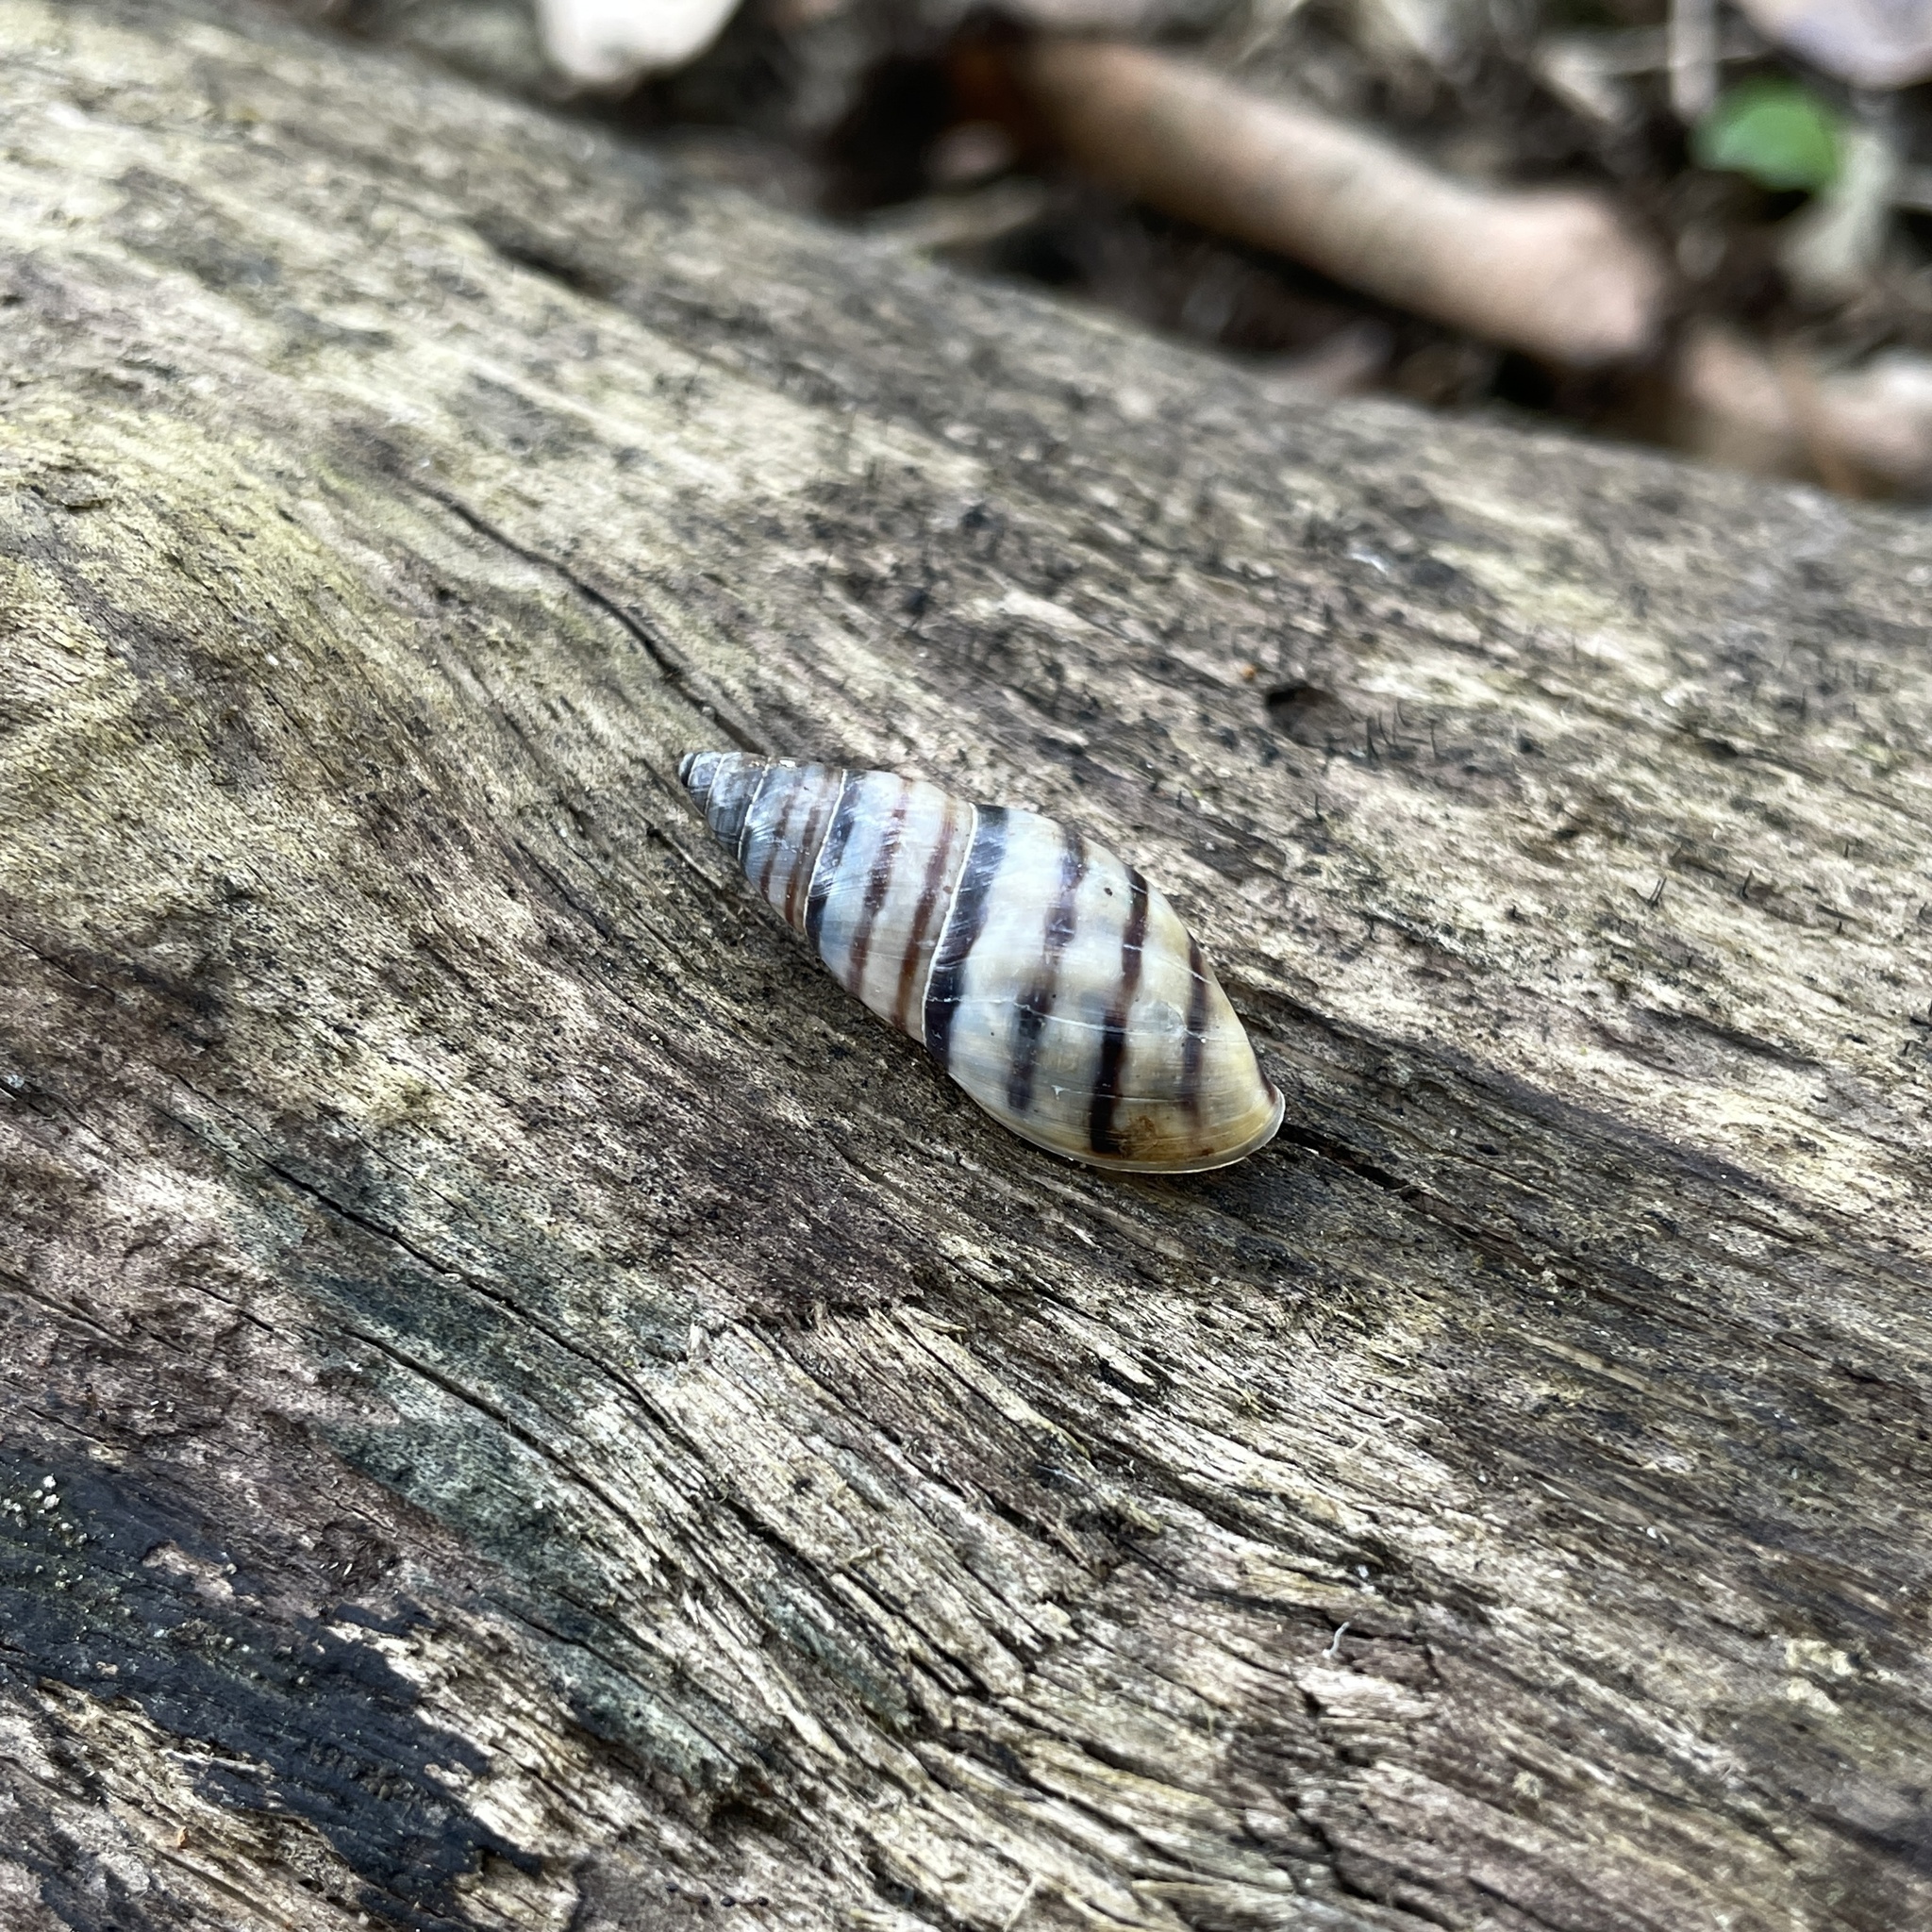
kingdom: Animalia
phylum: Mollusca
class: Gastropoda
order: Stylommatophora
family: Bulimulidae
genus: Drymaeus
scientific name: Drymaeus
